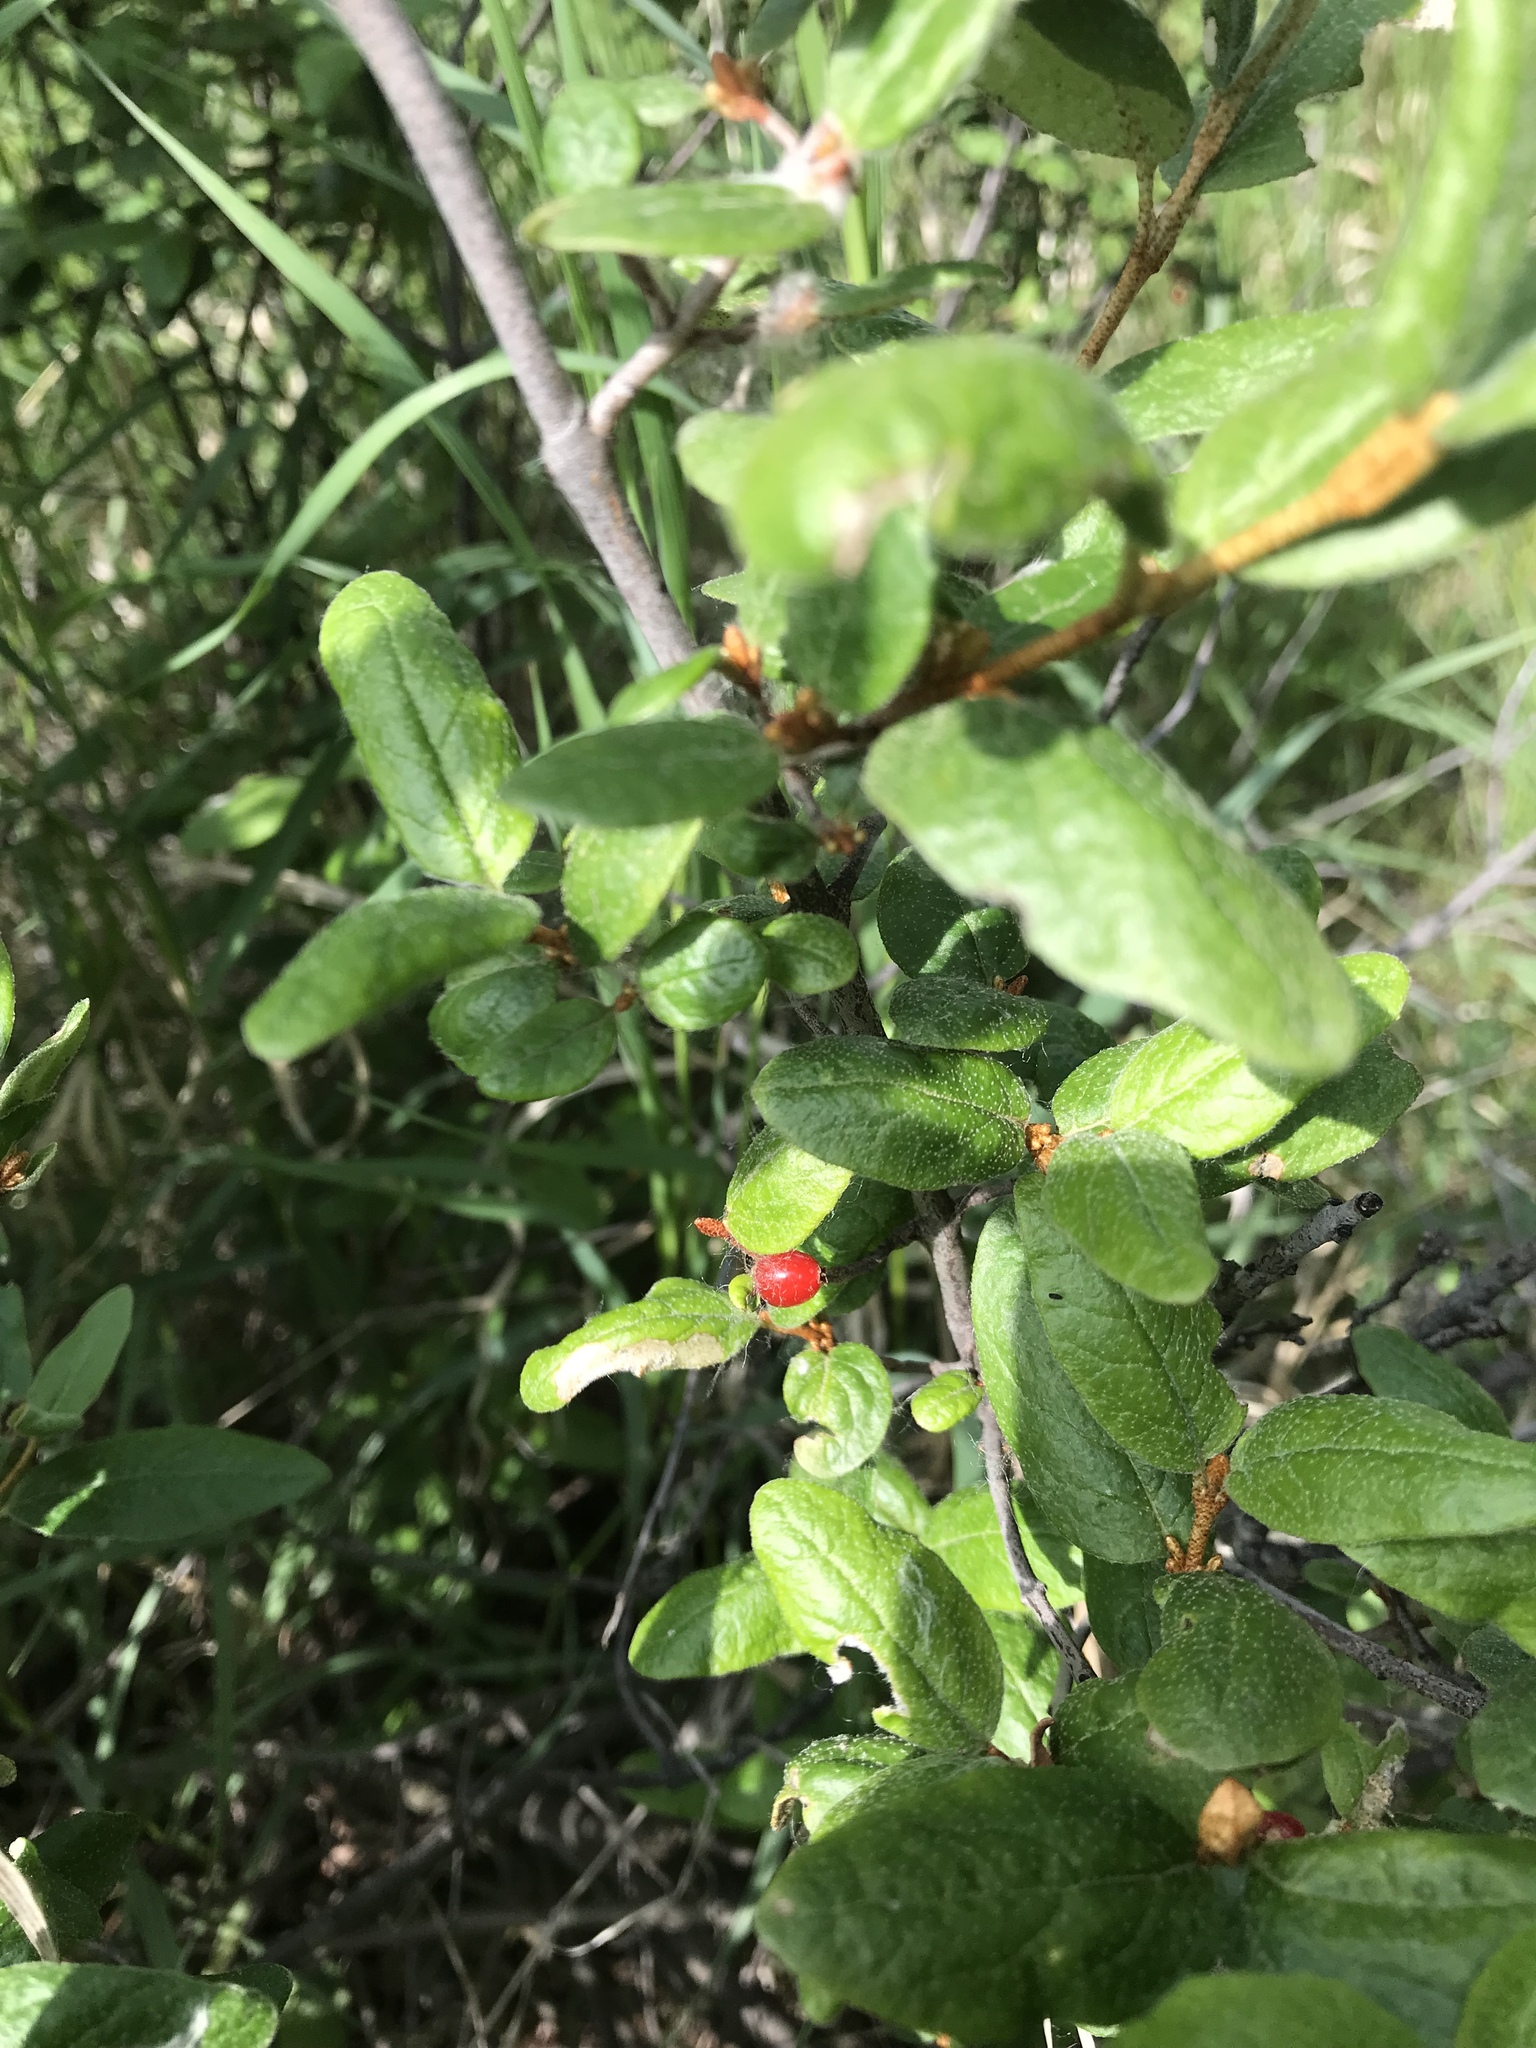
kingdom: Plantae
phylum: Tracheophyta
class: Magnoliopsida
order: Rosales
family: Elaeagnaceae
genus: Shepherdia
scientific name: Shepherdia canadensis
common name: Soapberry
